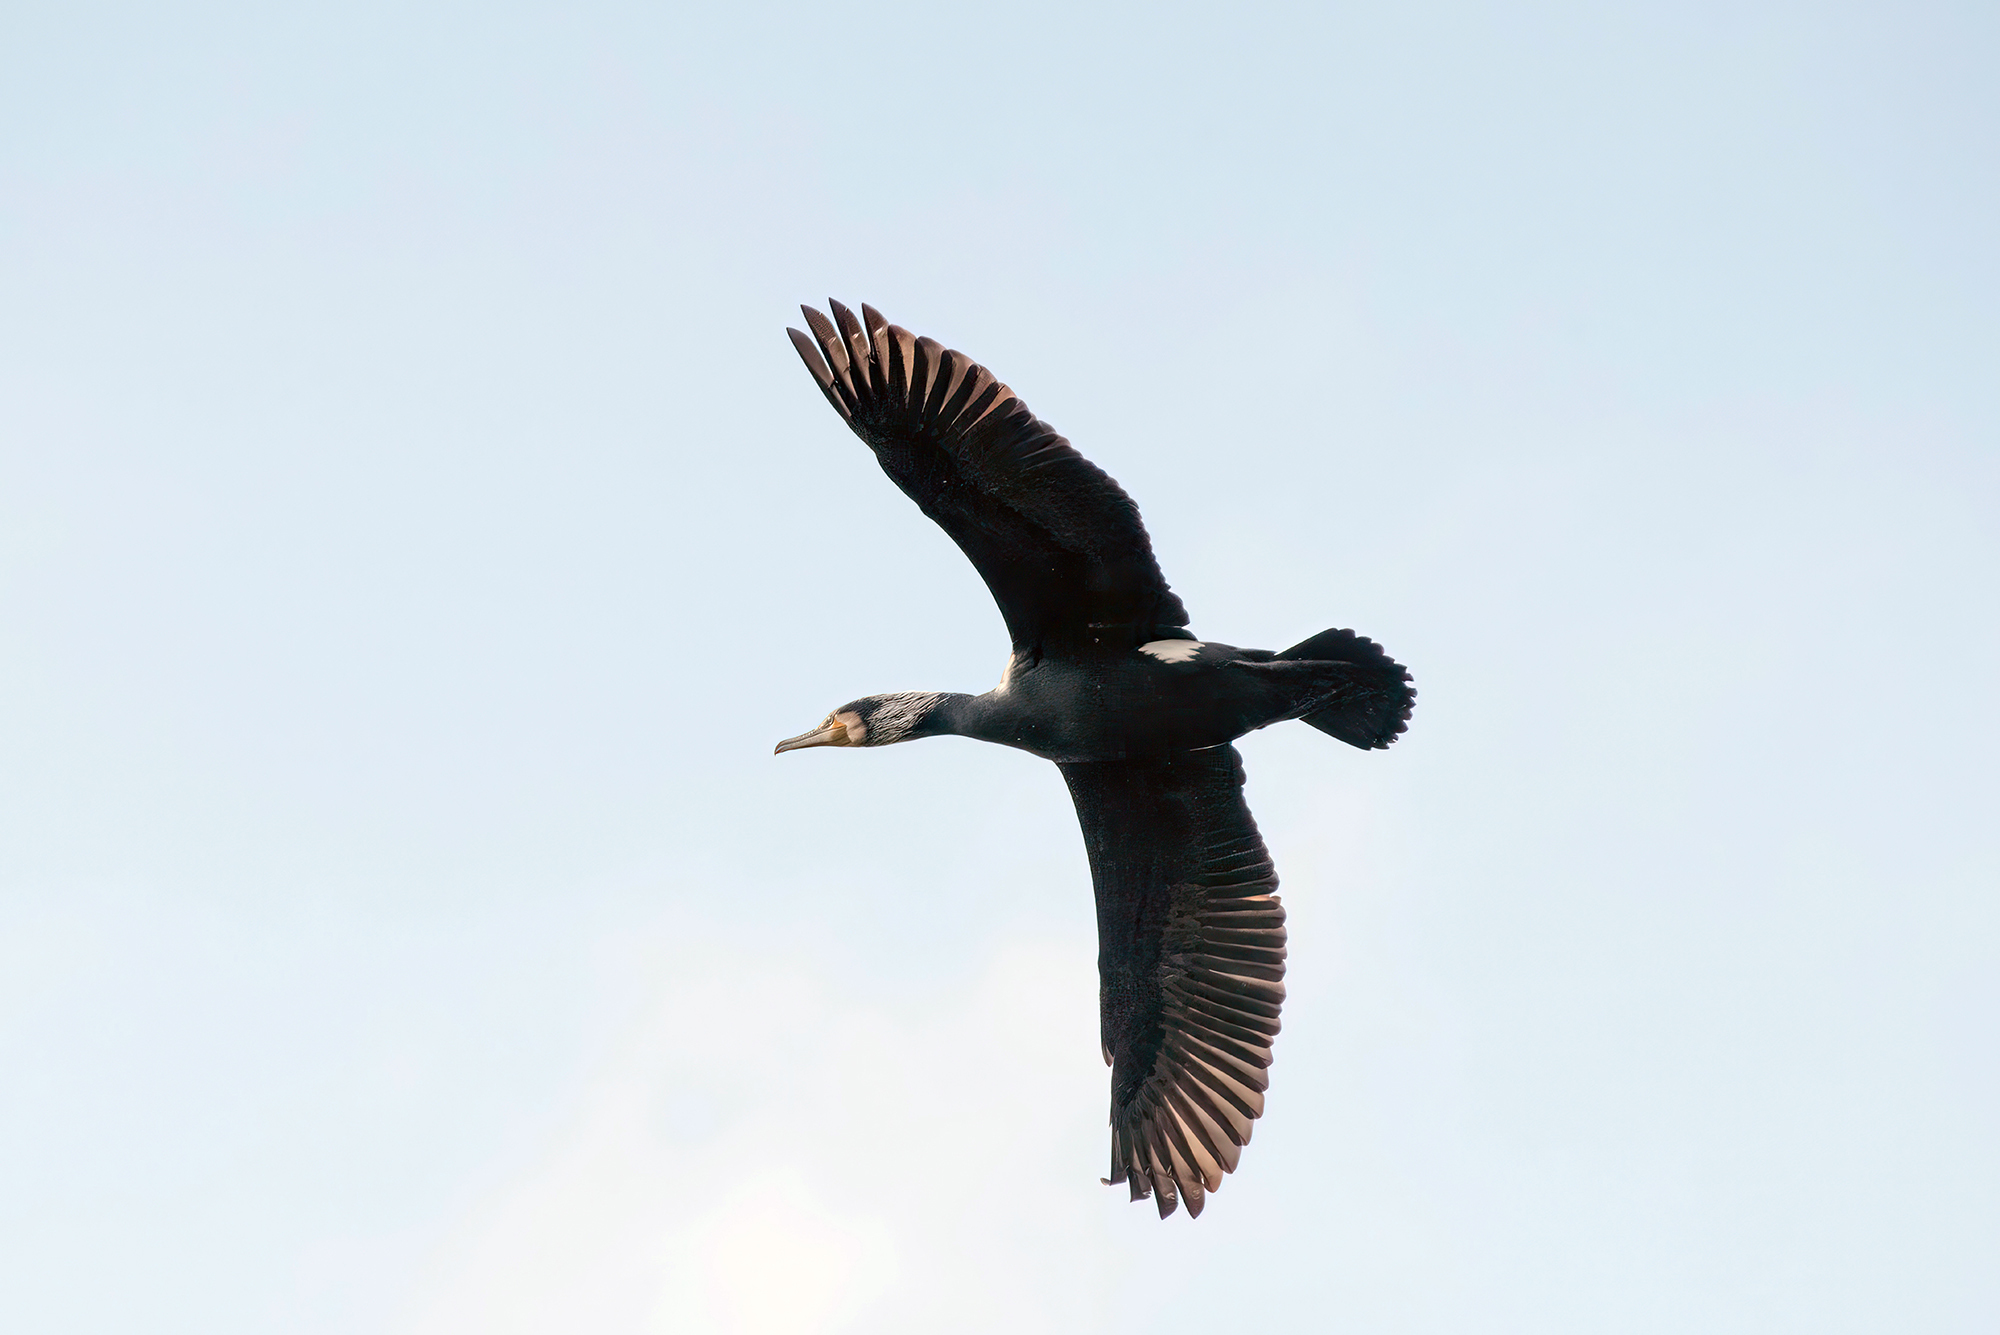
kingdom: Animalia
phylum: Chordata
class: Aves
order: Suliformes
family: Phalacrocoracidae
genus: Phalacrocorax
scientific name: Phalacrocorax carbo
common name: Great cormorant
